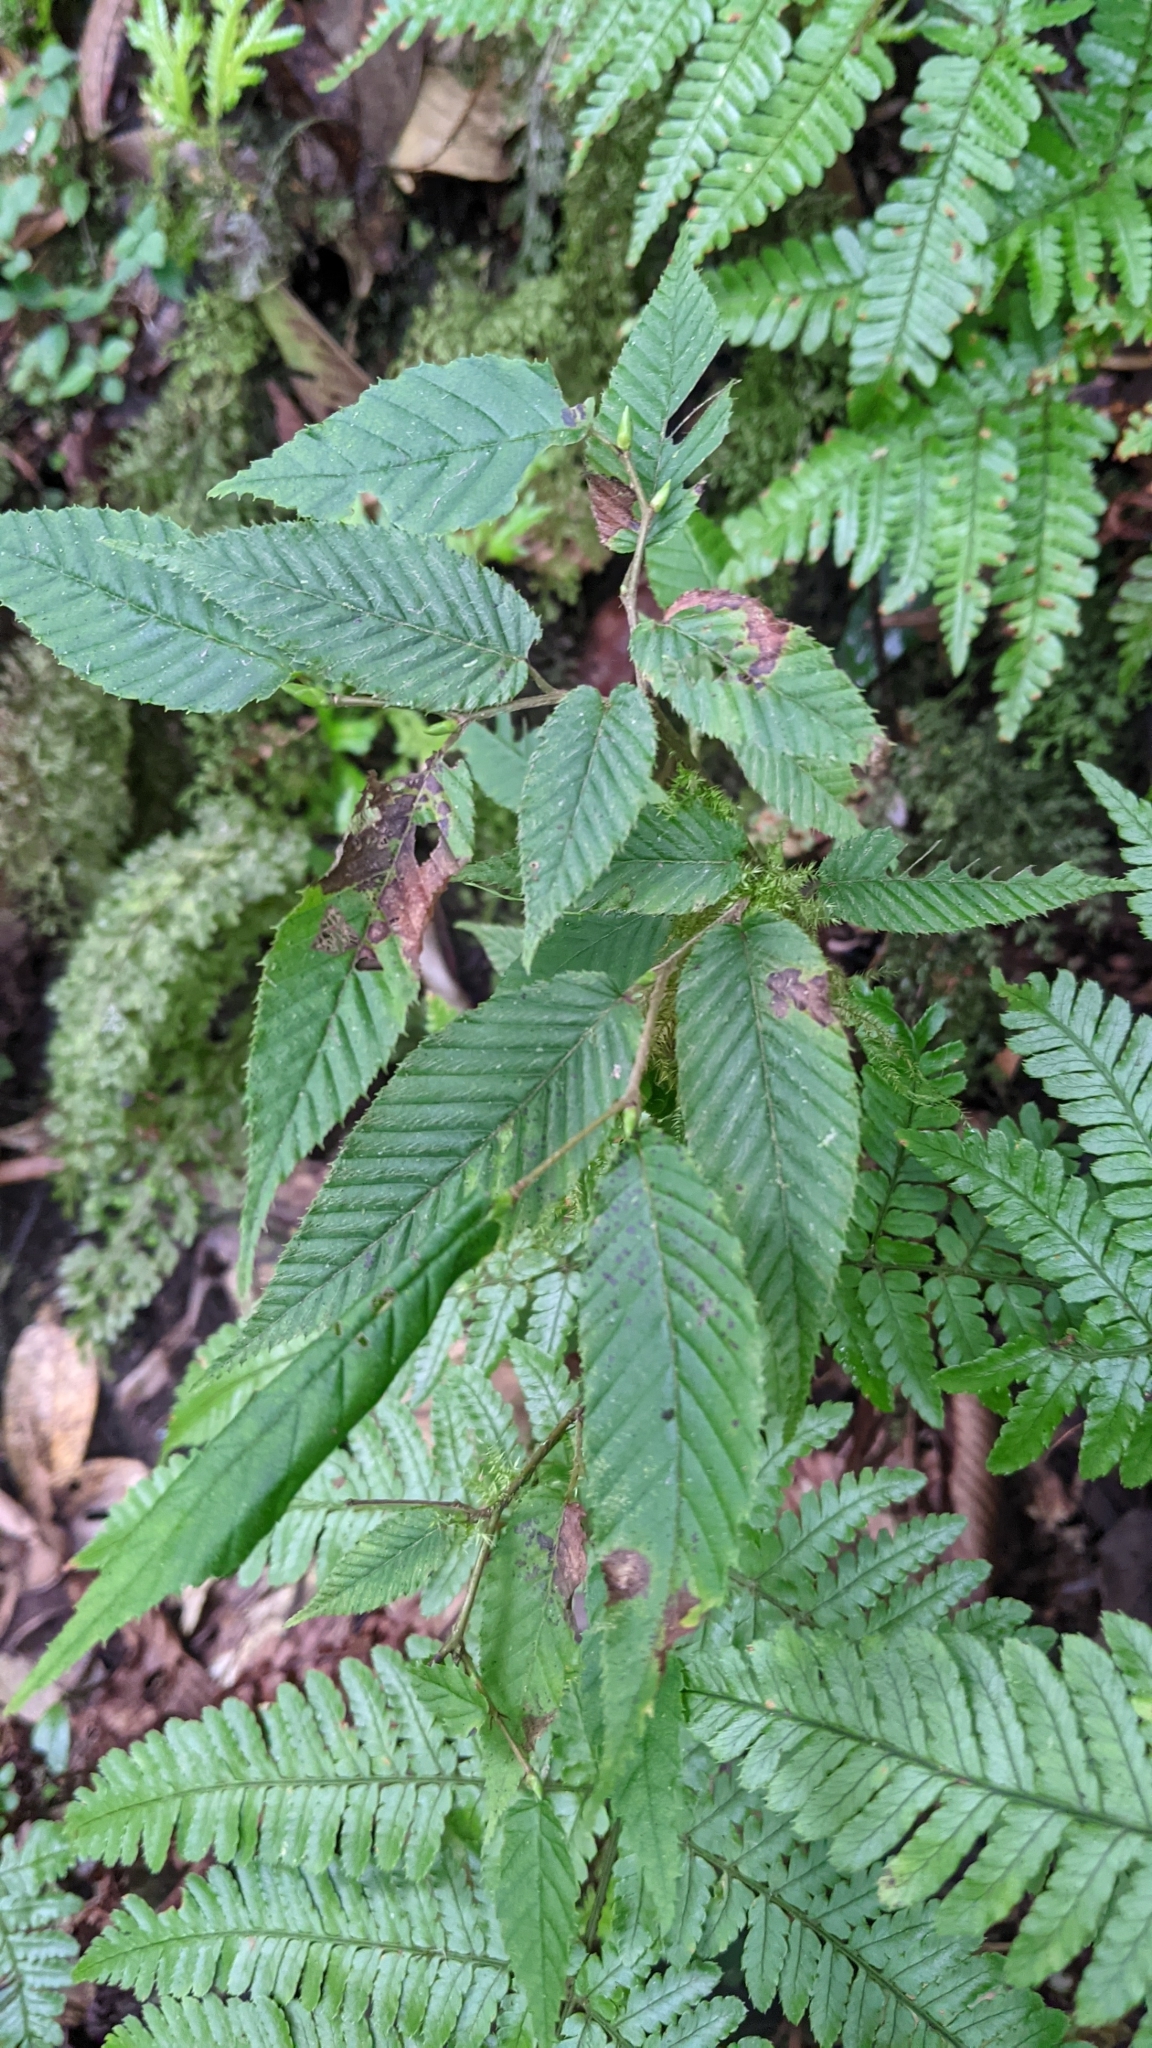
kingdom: Plantae
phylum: Tracheophyta
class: Magnoliopsida
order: Fagales
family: Betulaceae
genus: Carpinus
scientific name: Carpinus rankanensis
